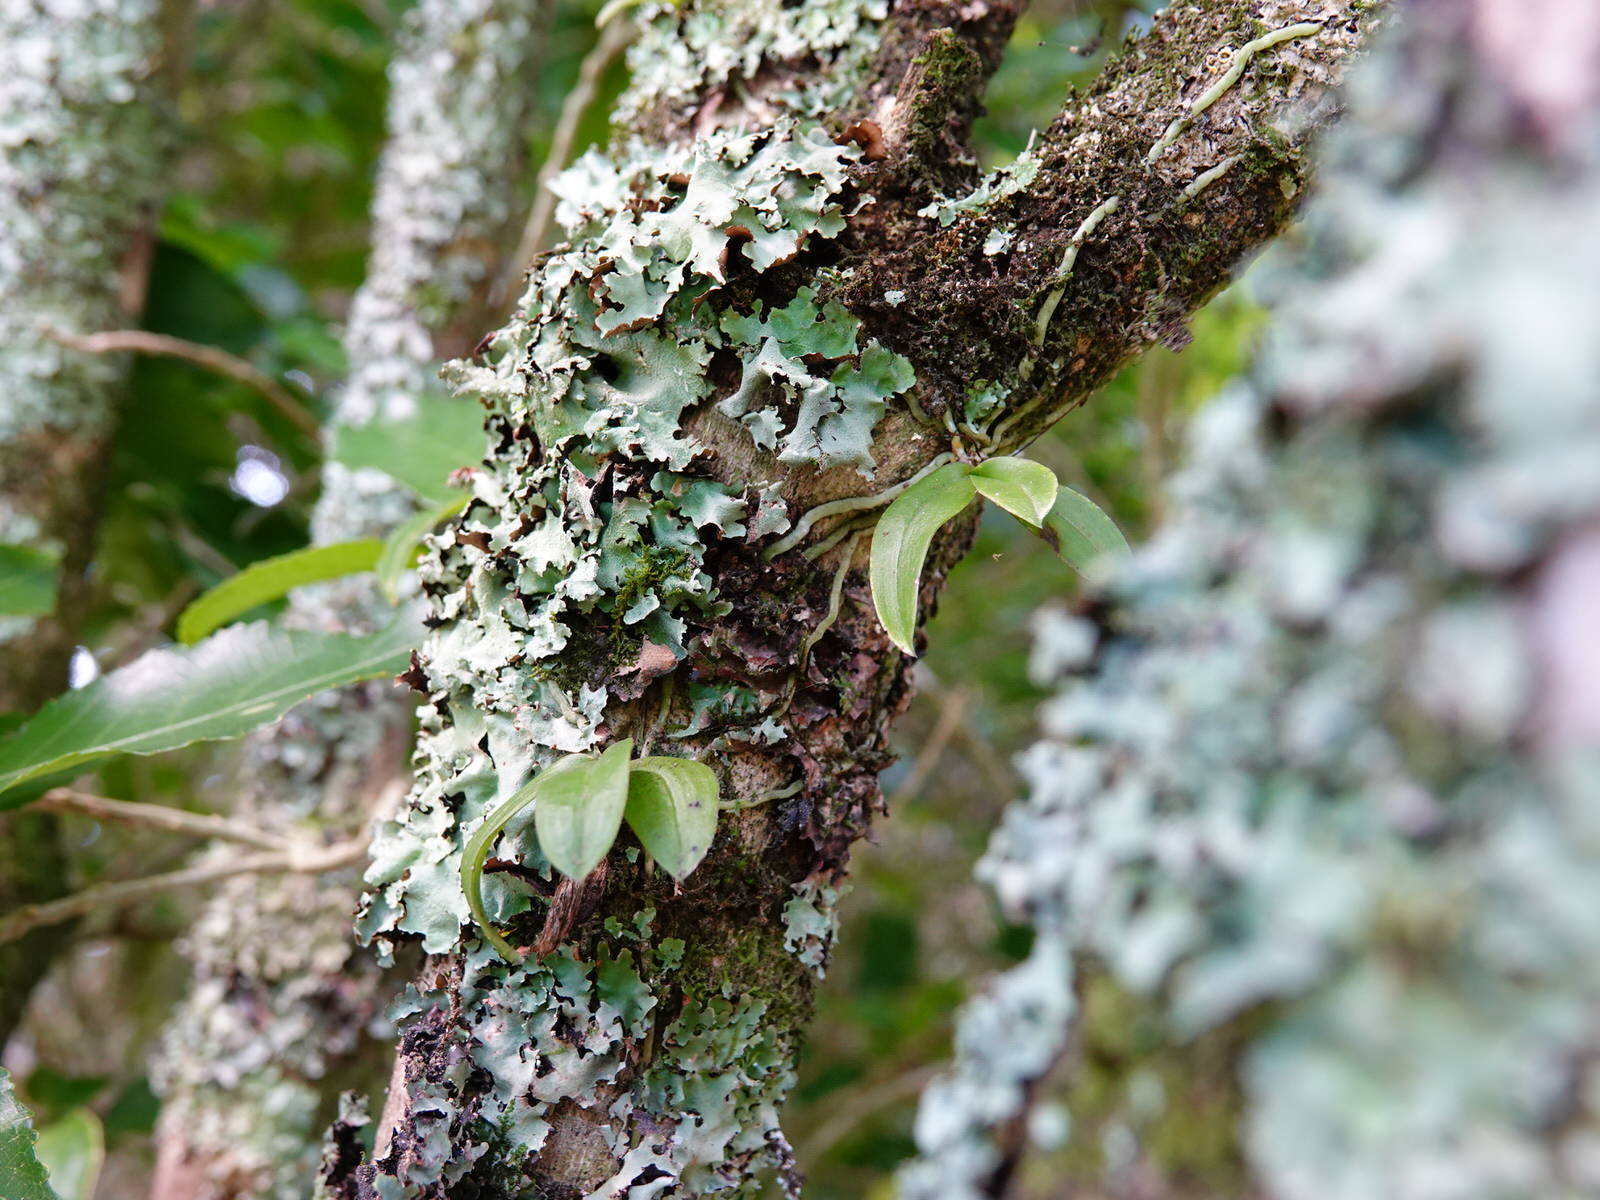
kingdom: Plantae
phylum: Tracheophyta
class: Liliopsida
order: Asparagales
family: Orchidaceae
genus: Drymoanthus
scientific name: Drymoanthus adversus
